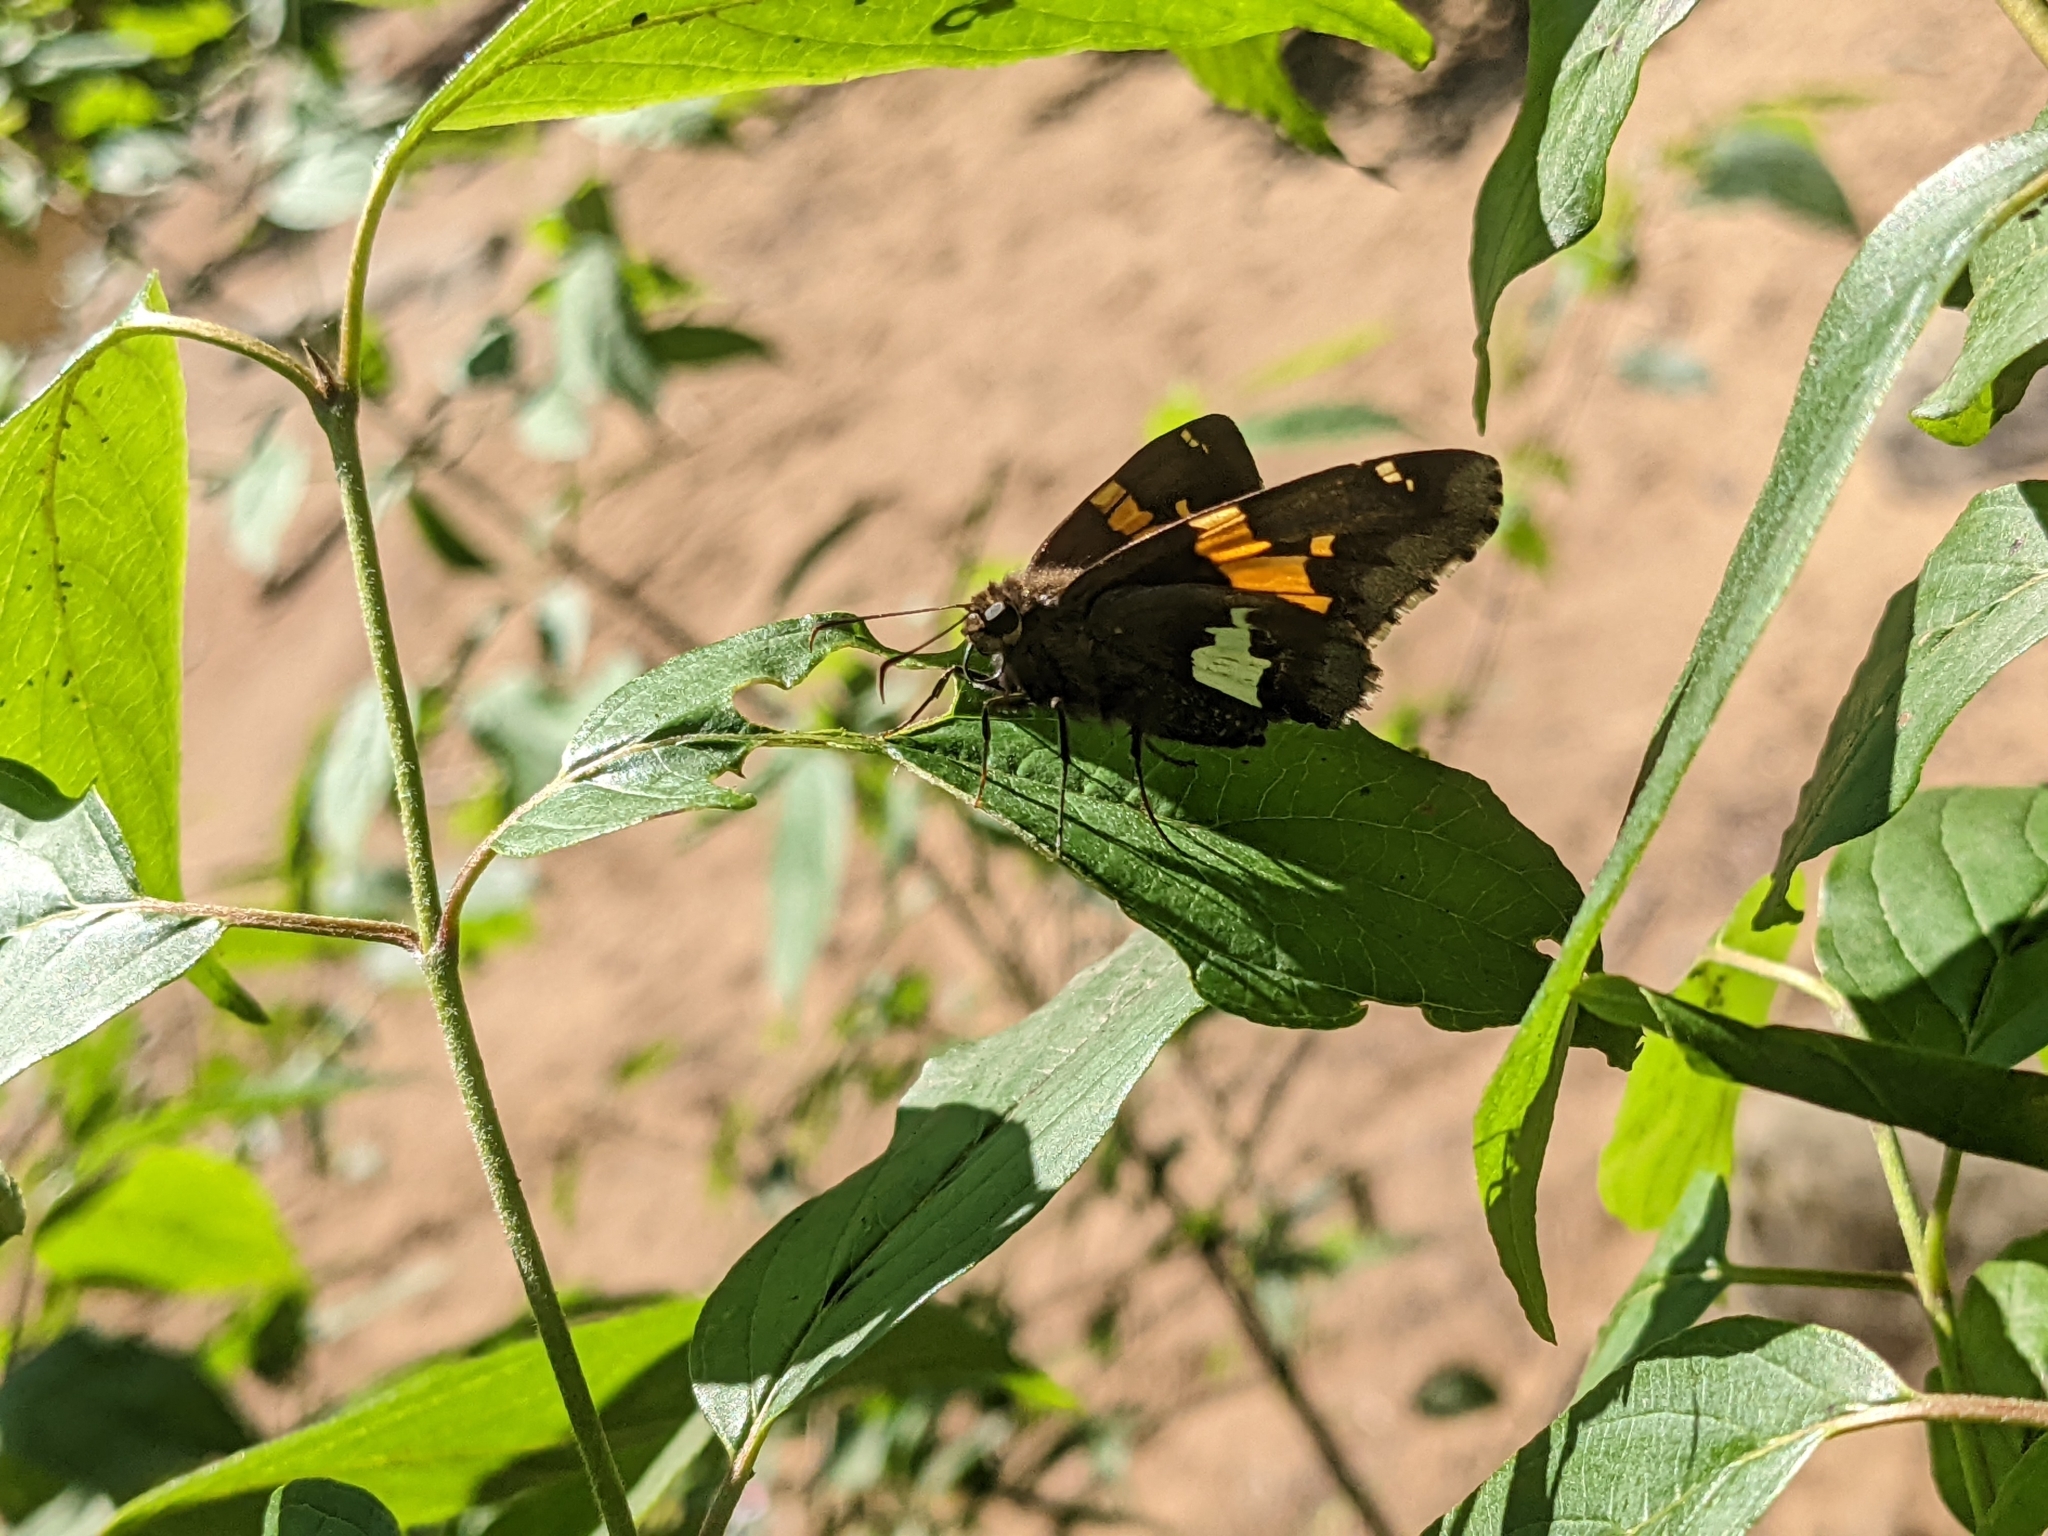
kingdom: Animalia
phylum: Arthropoda
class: Insecta
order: Lepidoptera
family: Hesperiidae
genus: Epargyreus
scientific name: Epargyreus clarus
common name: Silver-spotted skipper
